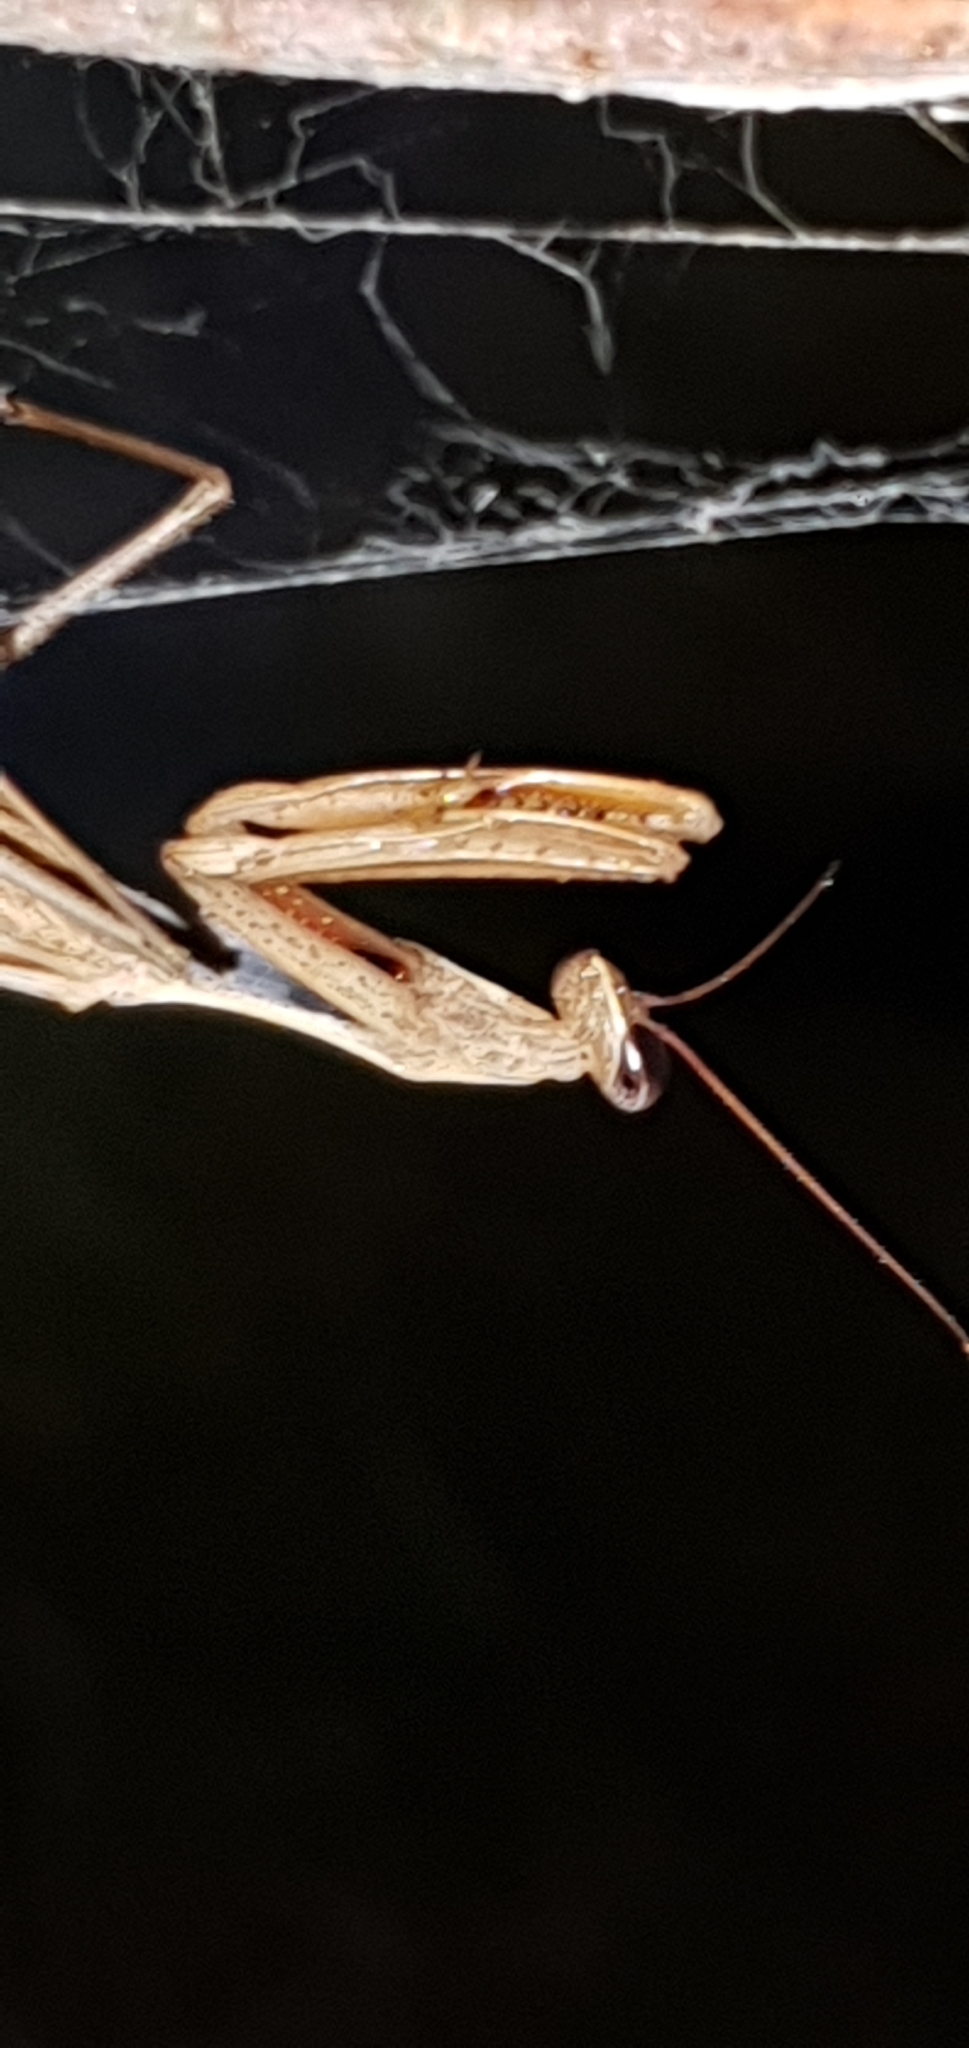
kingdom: Animalia
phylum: Arthropoda
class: Insecta
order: Mantodea
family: Mantidae
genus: Mantis
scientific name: Mantis octospilota
